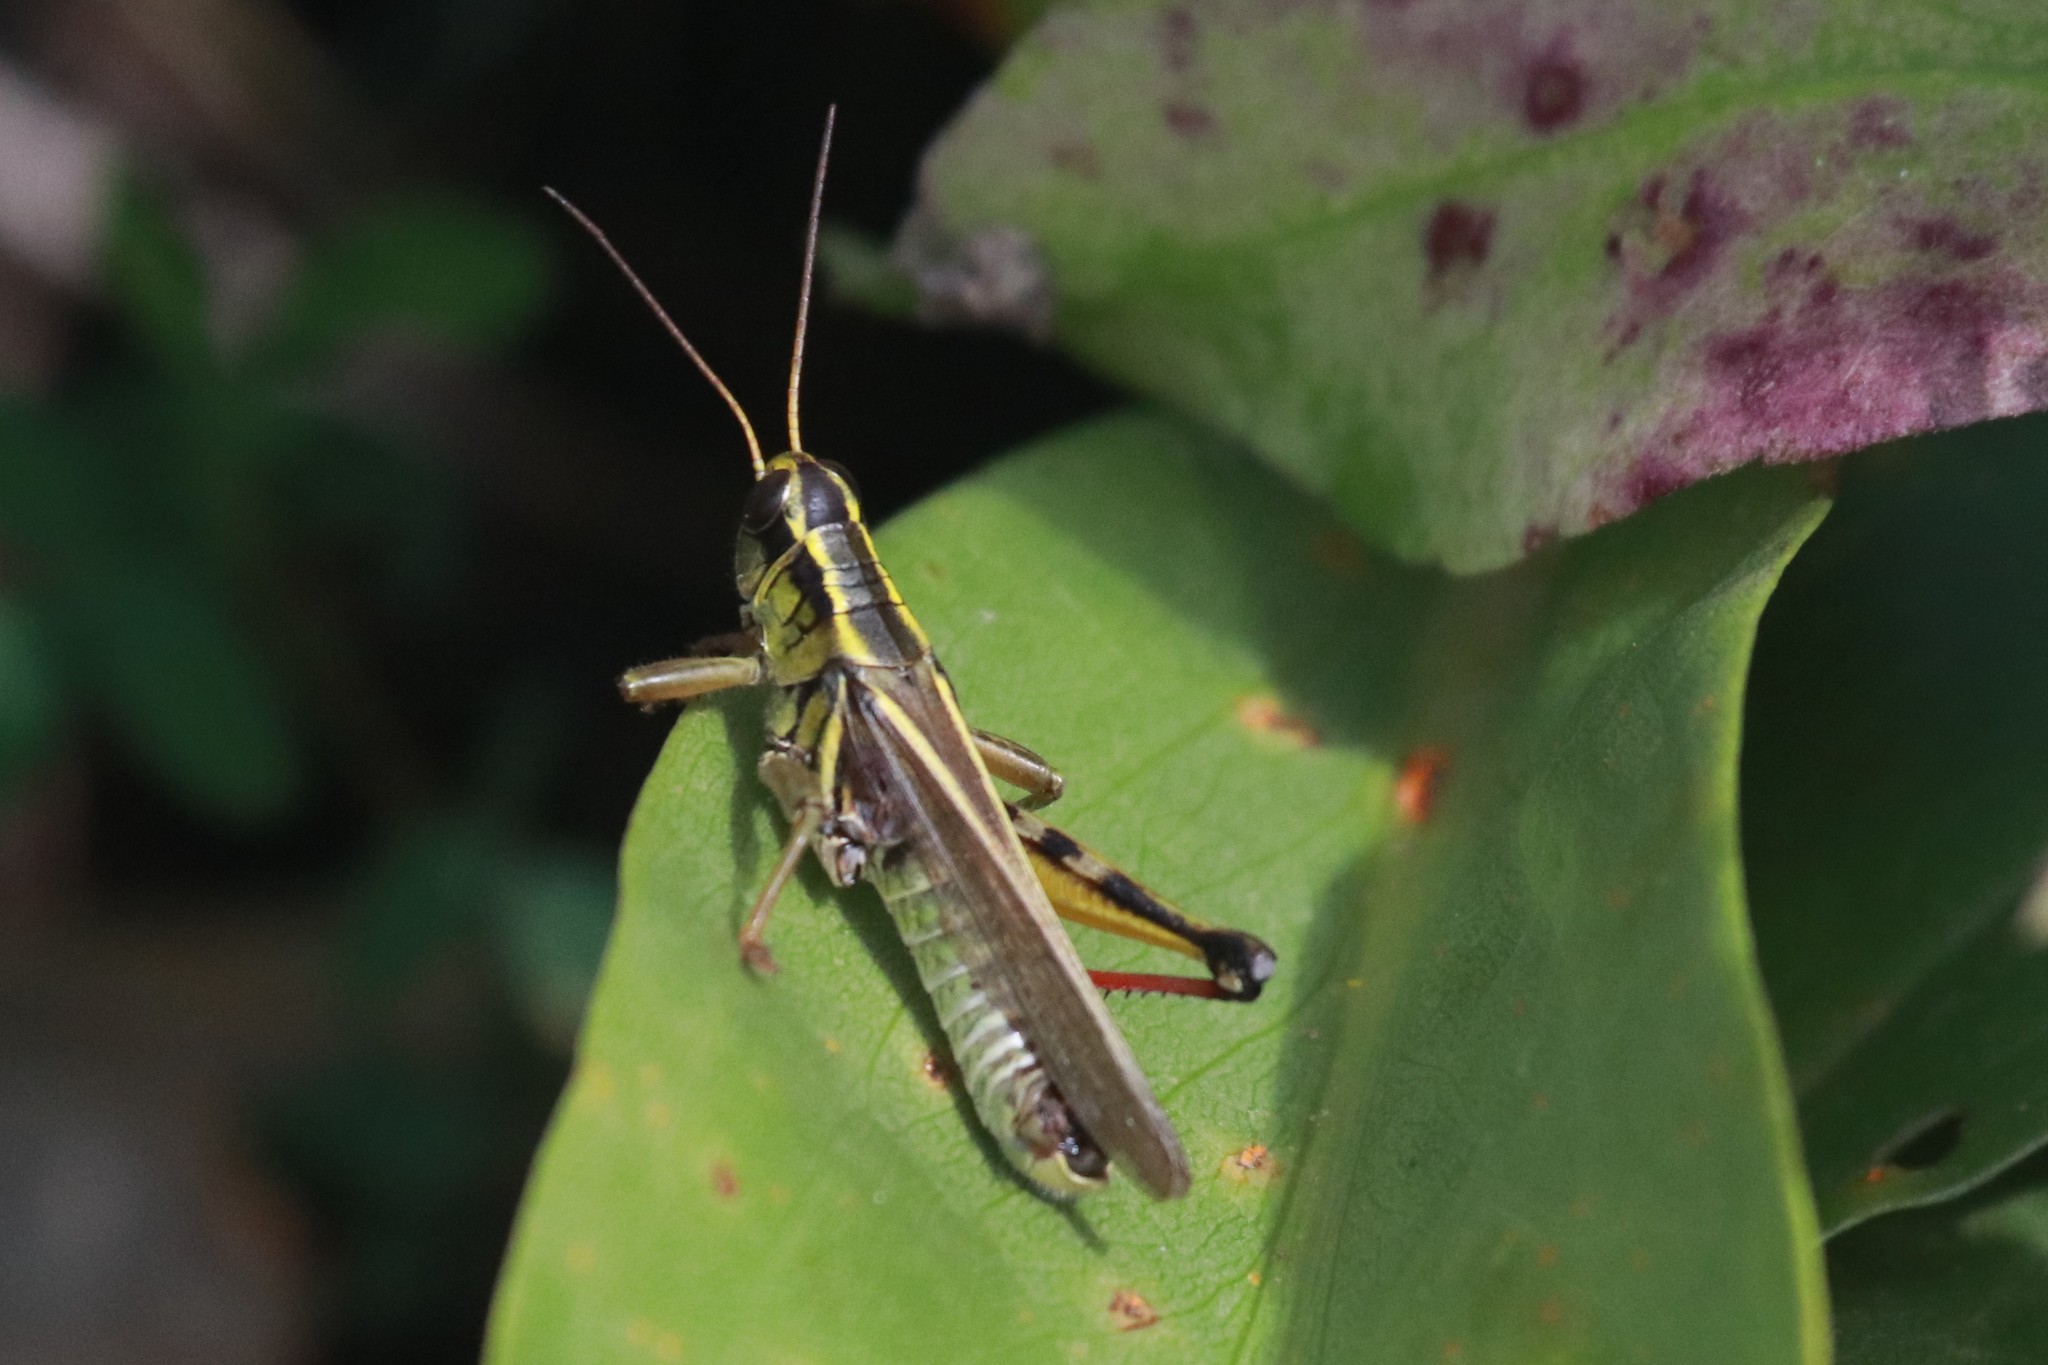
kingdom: Animalia
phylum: Arthropoda
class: Insecta
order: Orthoptera
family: Acrididae
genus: Melanoplus
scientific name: Melanoplus bivittatus
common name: Two-striped grasshopper
